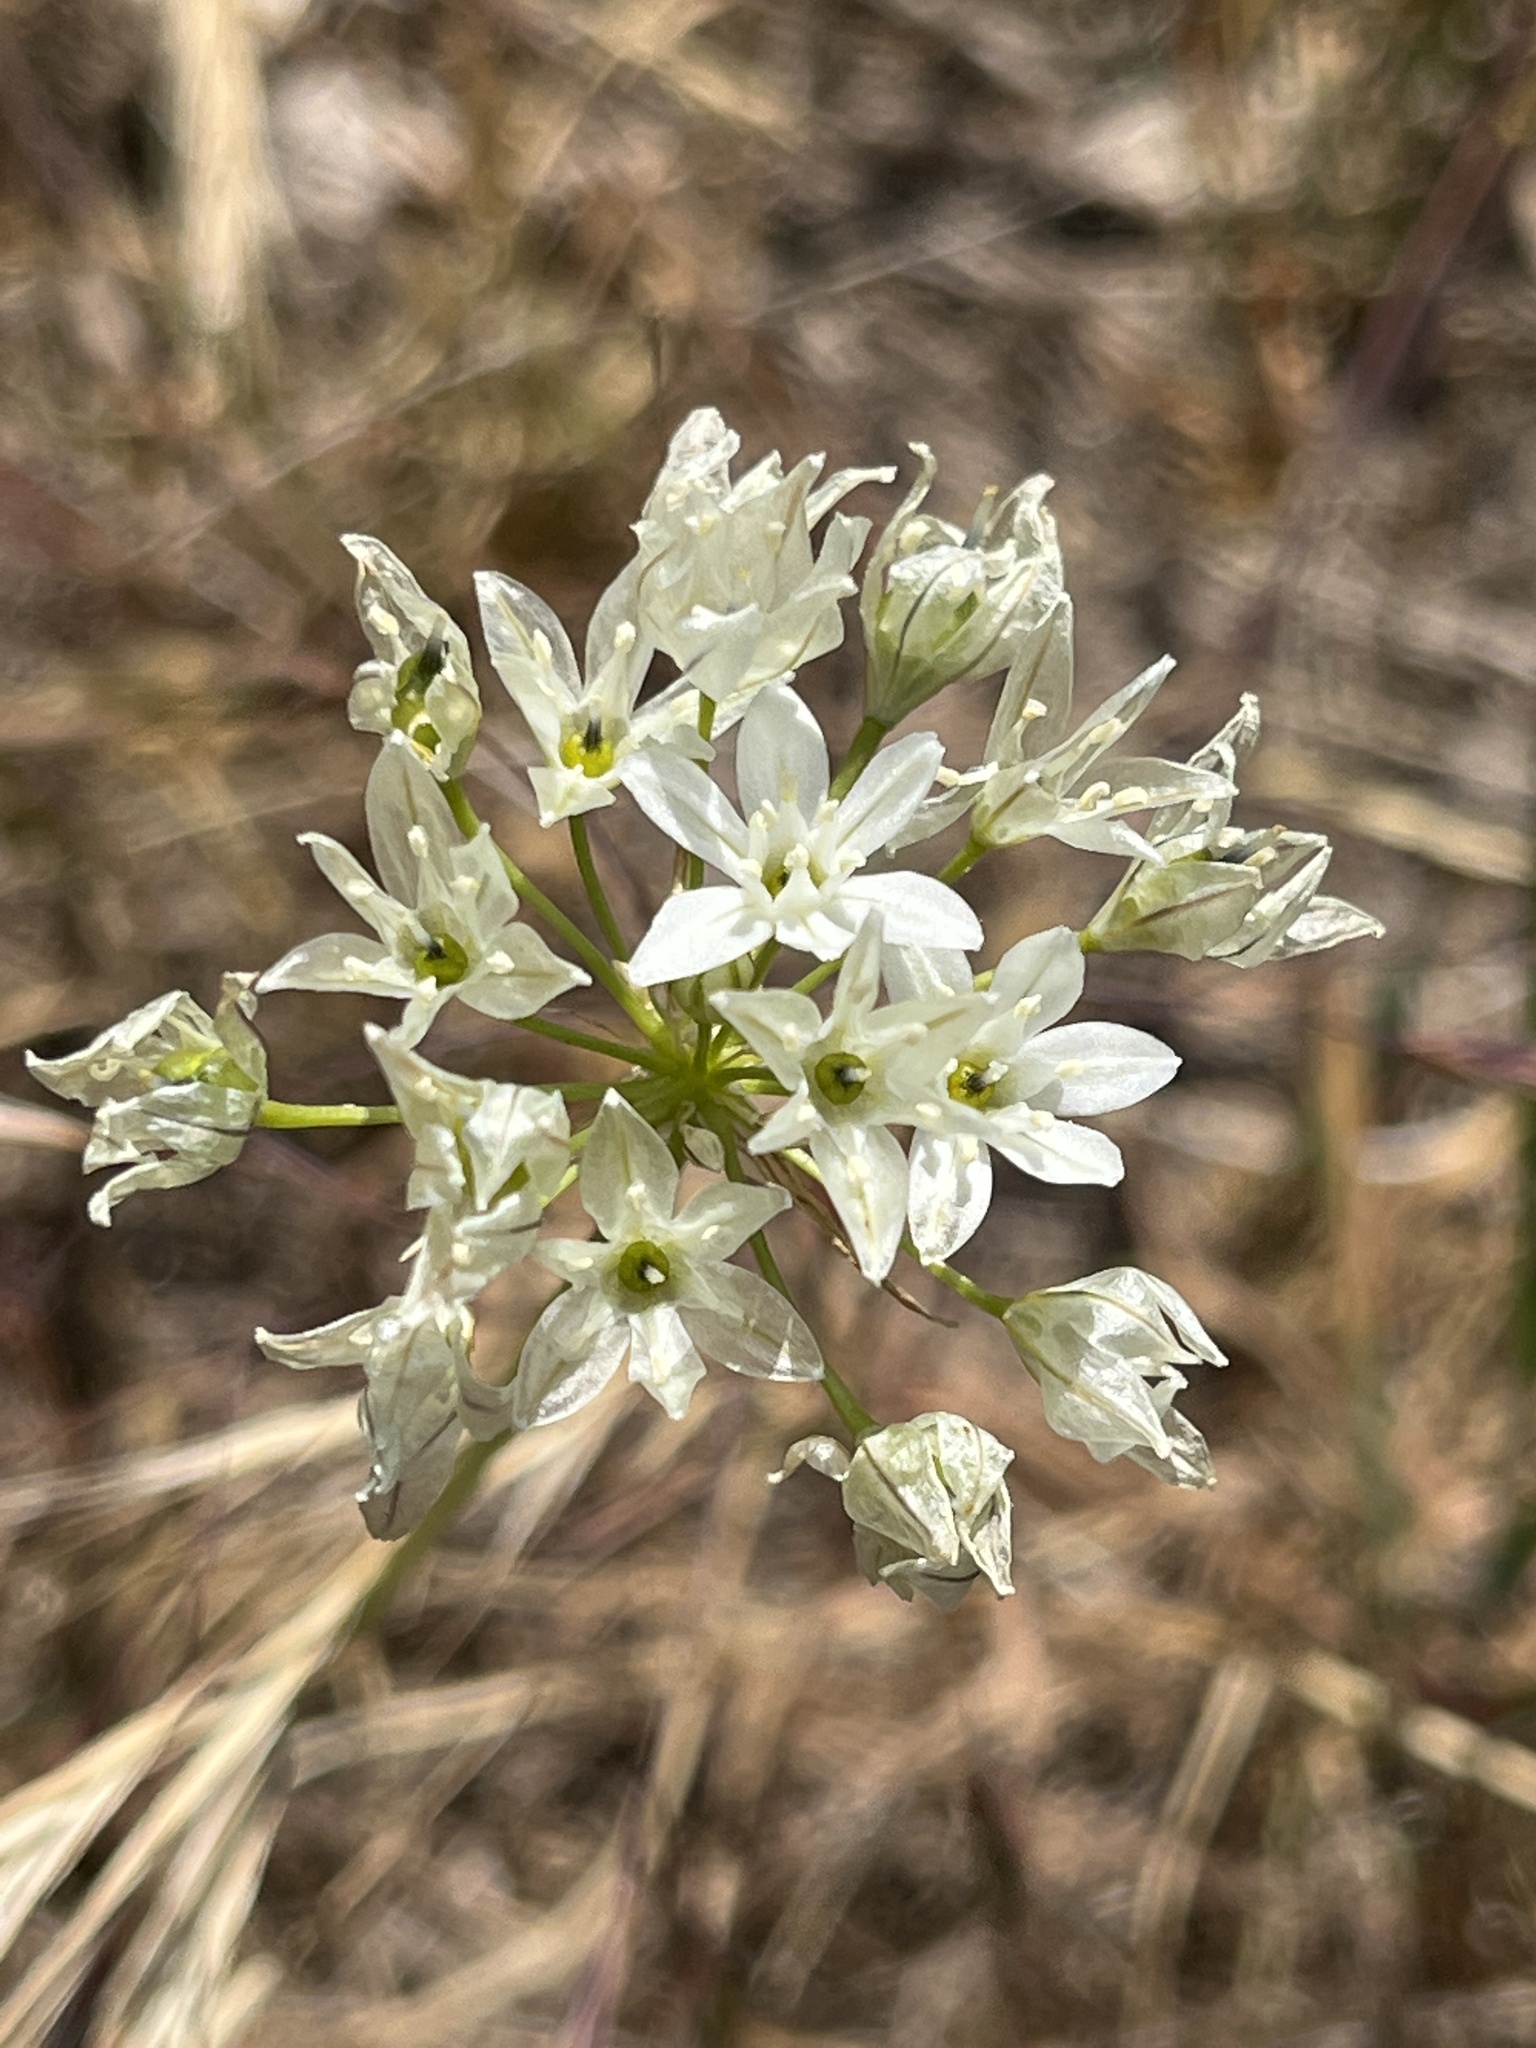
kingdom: Plantae
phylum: Tracheophyta
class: Liliopsida
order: Asparagales
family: Asparagaceae
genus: Triteleia
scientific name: Triteleia hyacinthina
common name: White brodiaea
